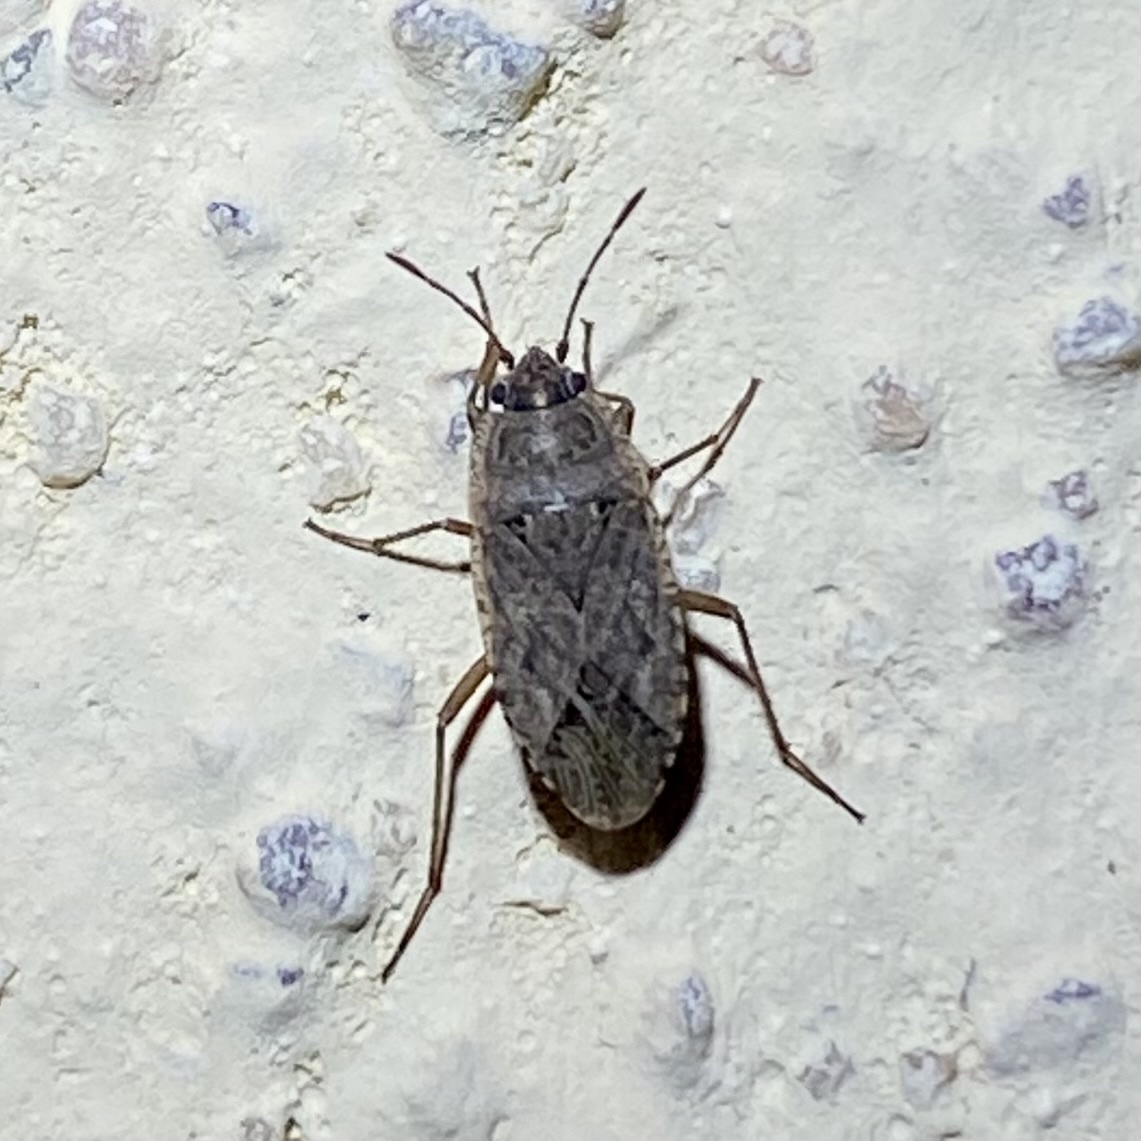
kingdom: Animalia
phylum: Arthropoda
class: Insecta
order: Hemiptera
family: Rhyparochromidae
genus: Emblethis
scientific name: Emblethis vicarius
